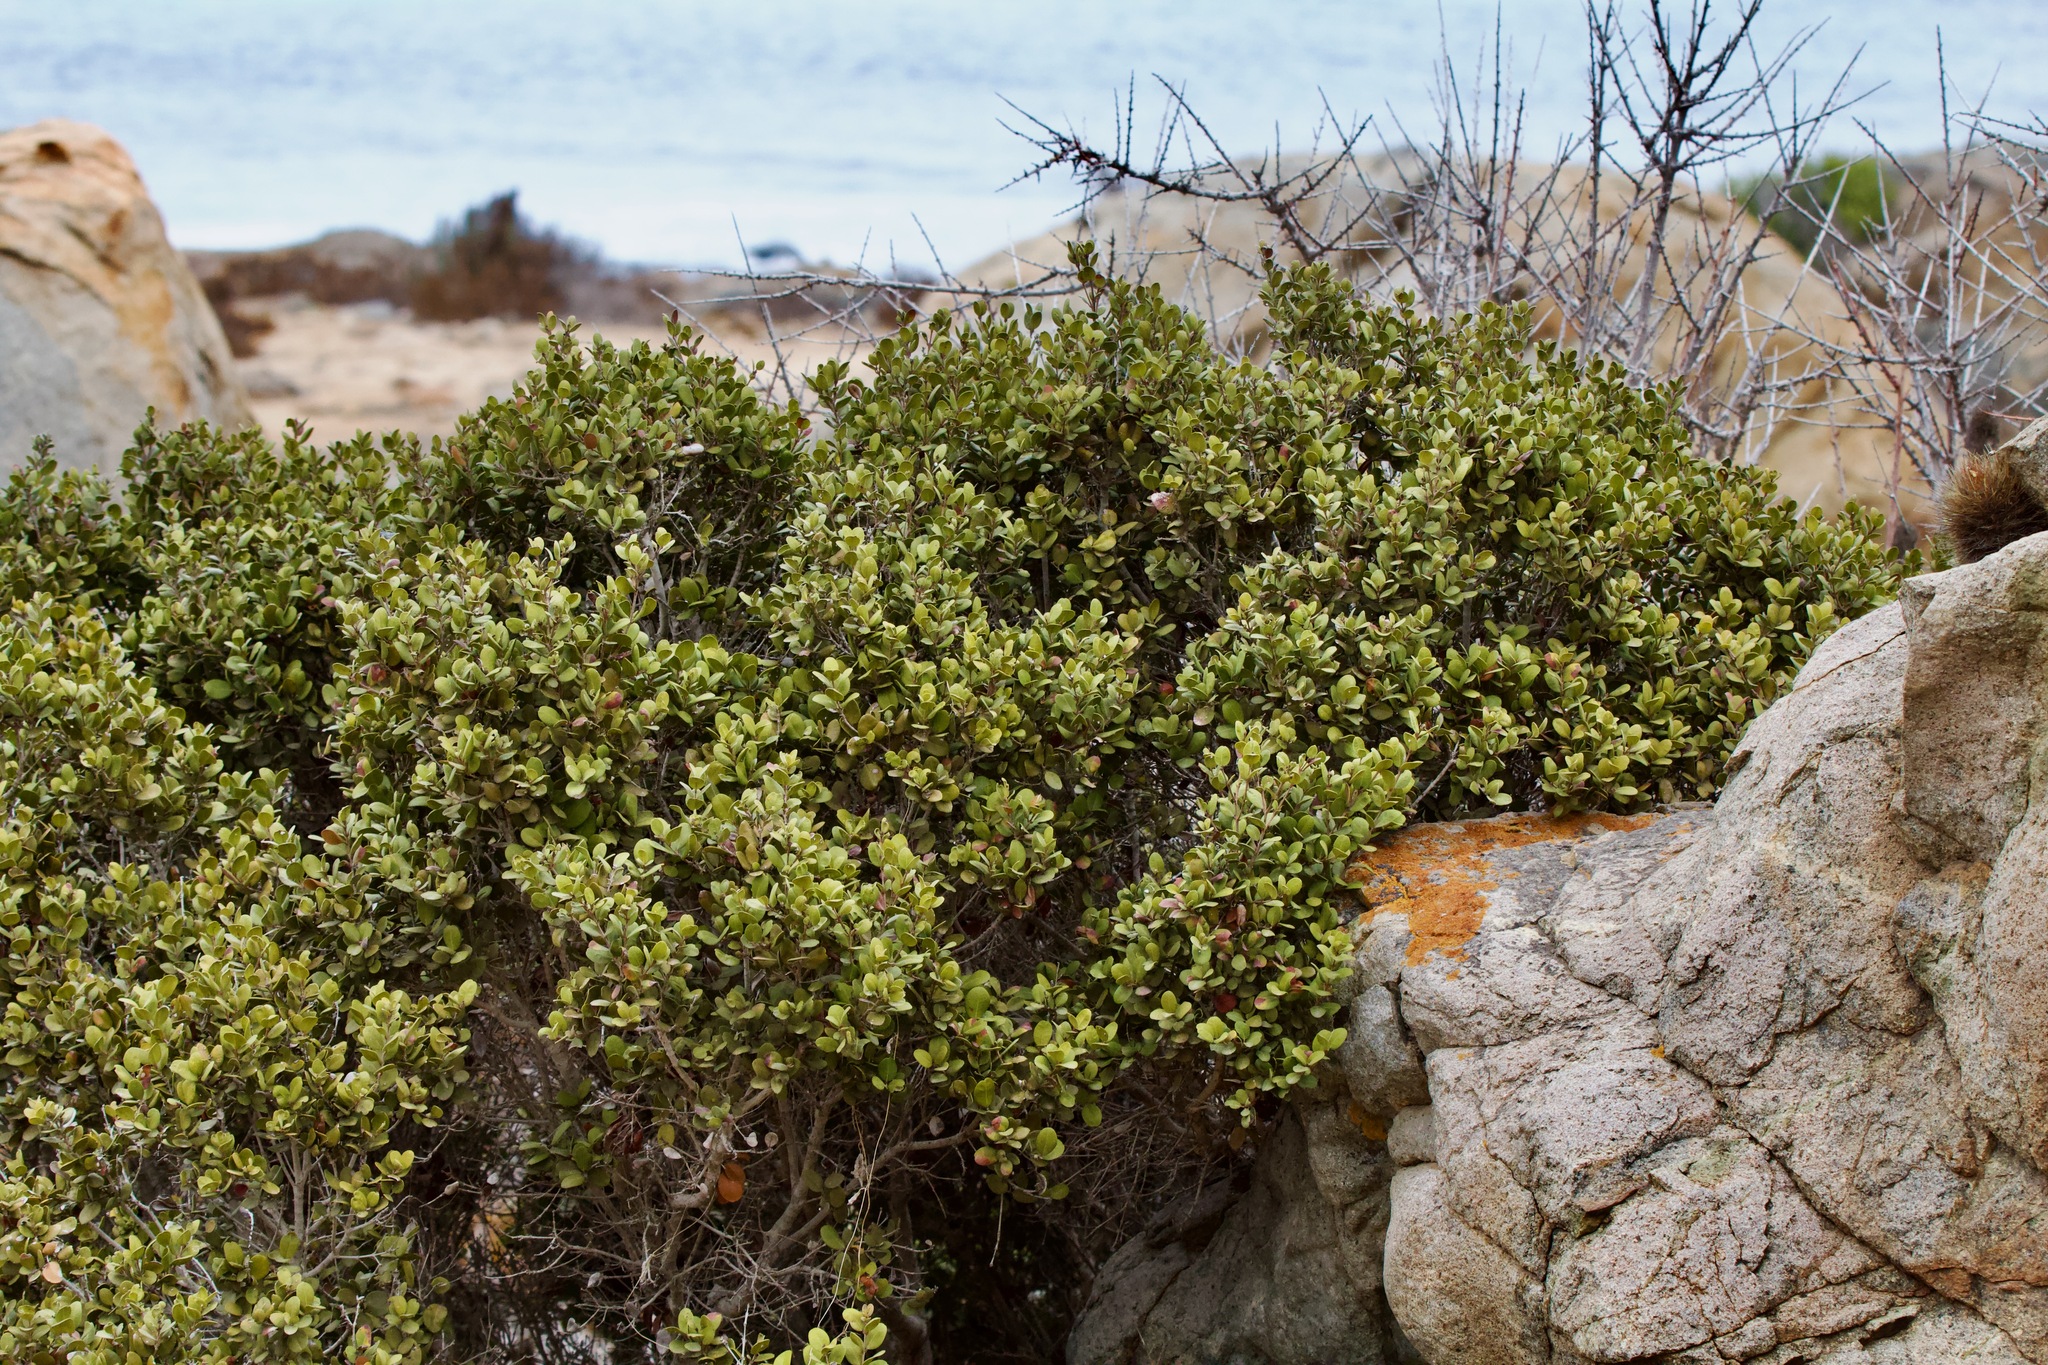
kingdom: Plantae
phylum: Tracheophyta
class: Magnoliopsida
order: Myrtales
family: Myrtaceae
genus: Myrcianthes
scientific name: Myrcianthes coquimbensis
